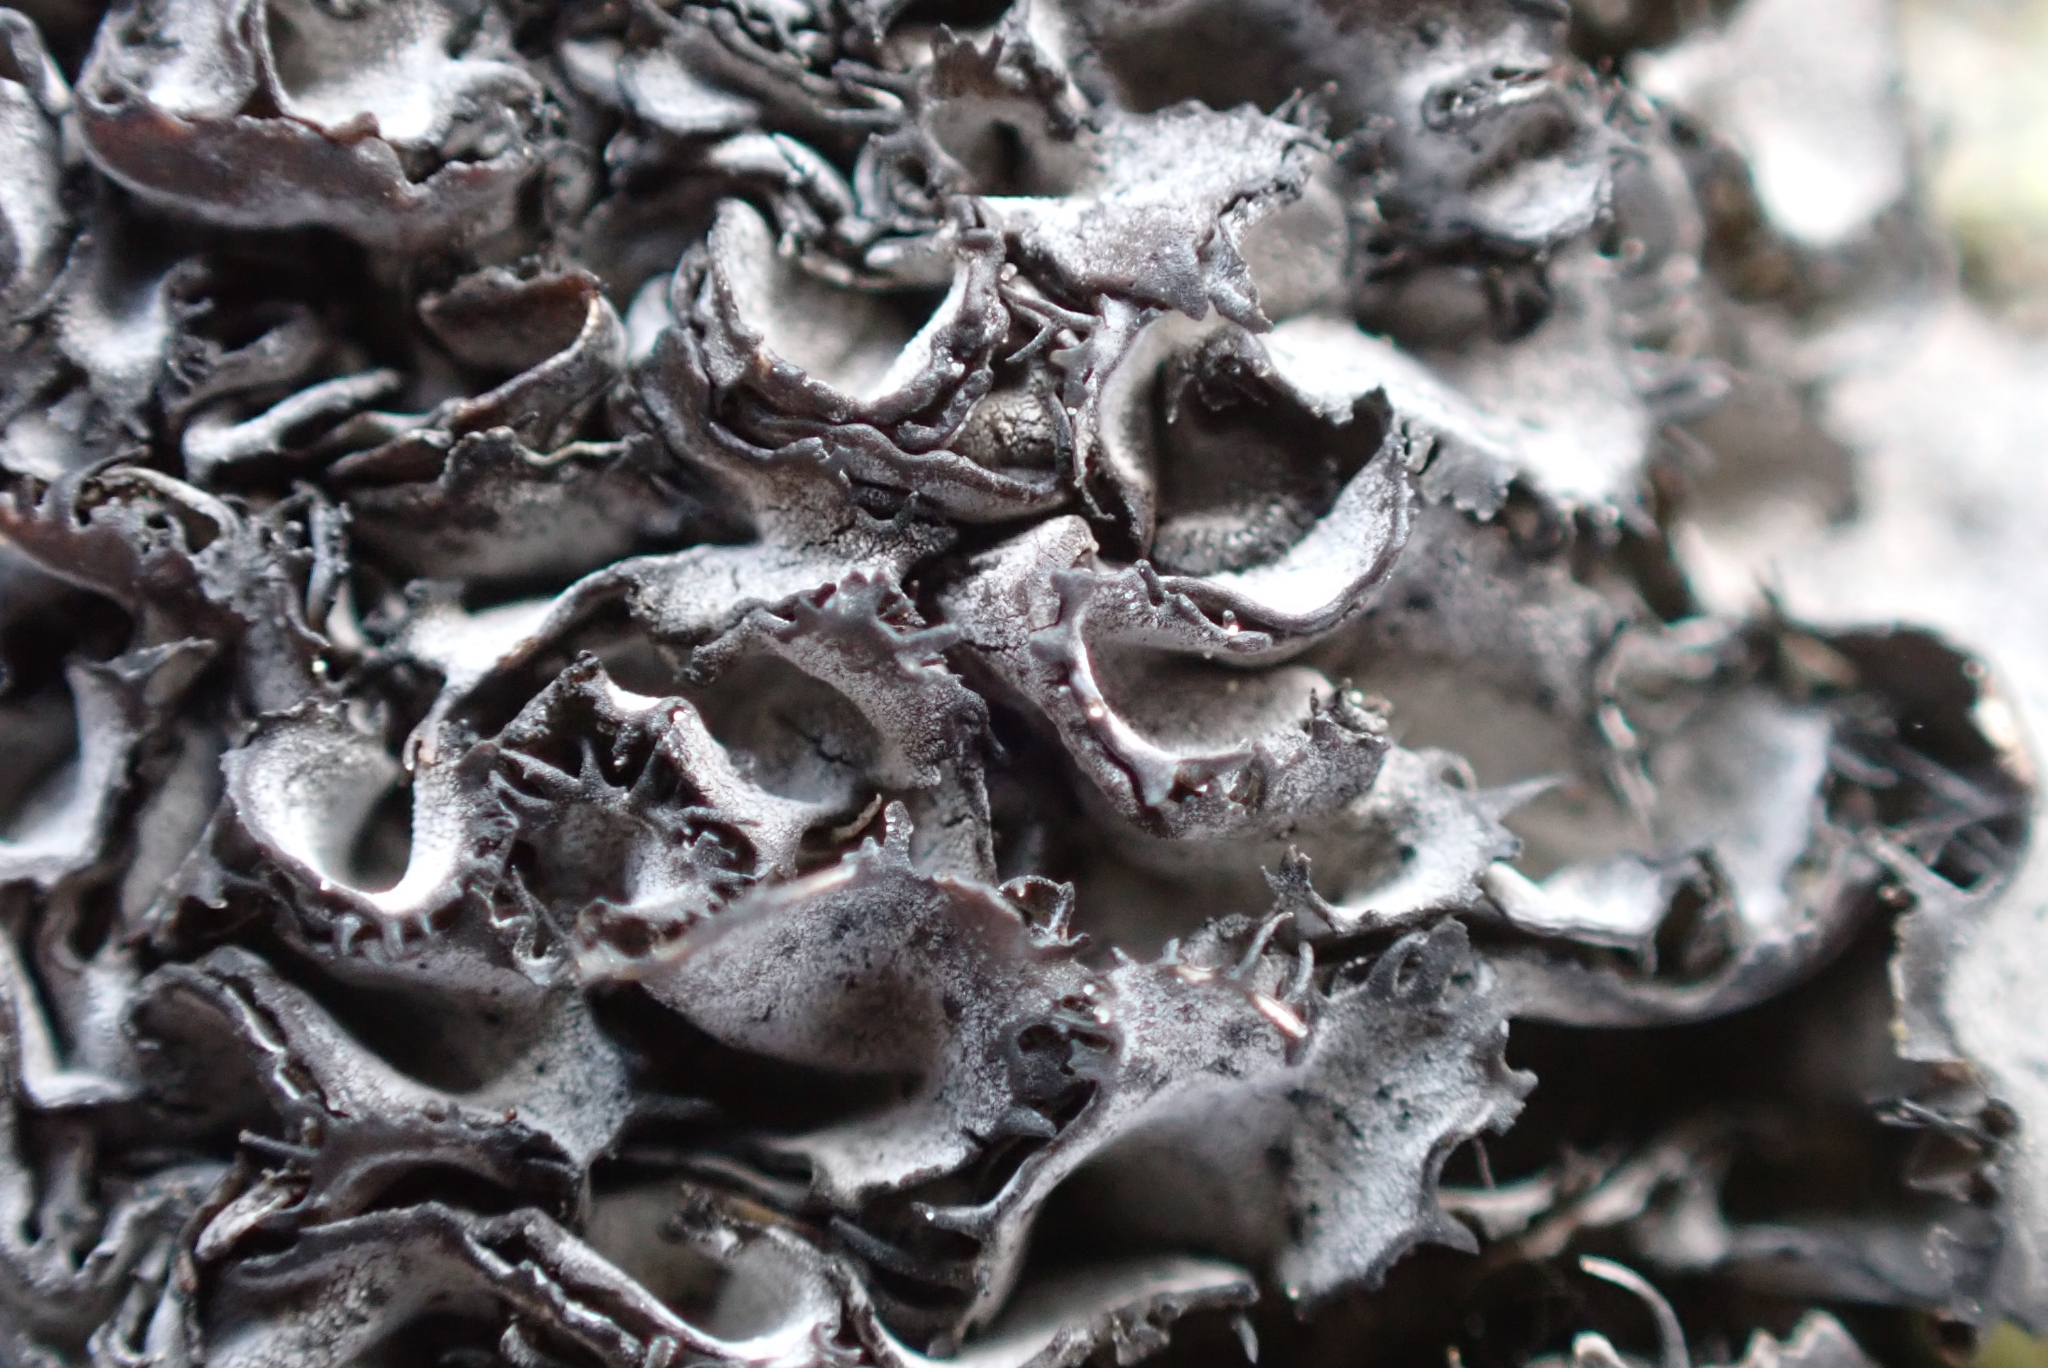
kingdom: Fungi
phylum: Ascomycota
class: Lecanoromycetes
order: Umbilicariales
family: Umbilicariaceae
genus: Umbilicaria
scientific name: Umbilicaria cylindrica
